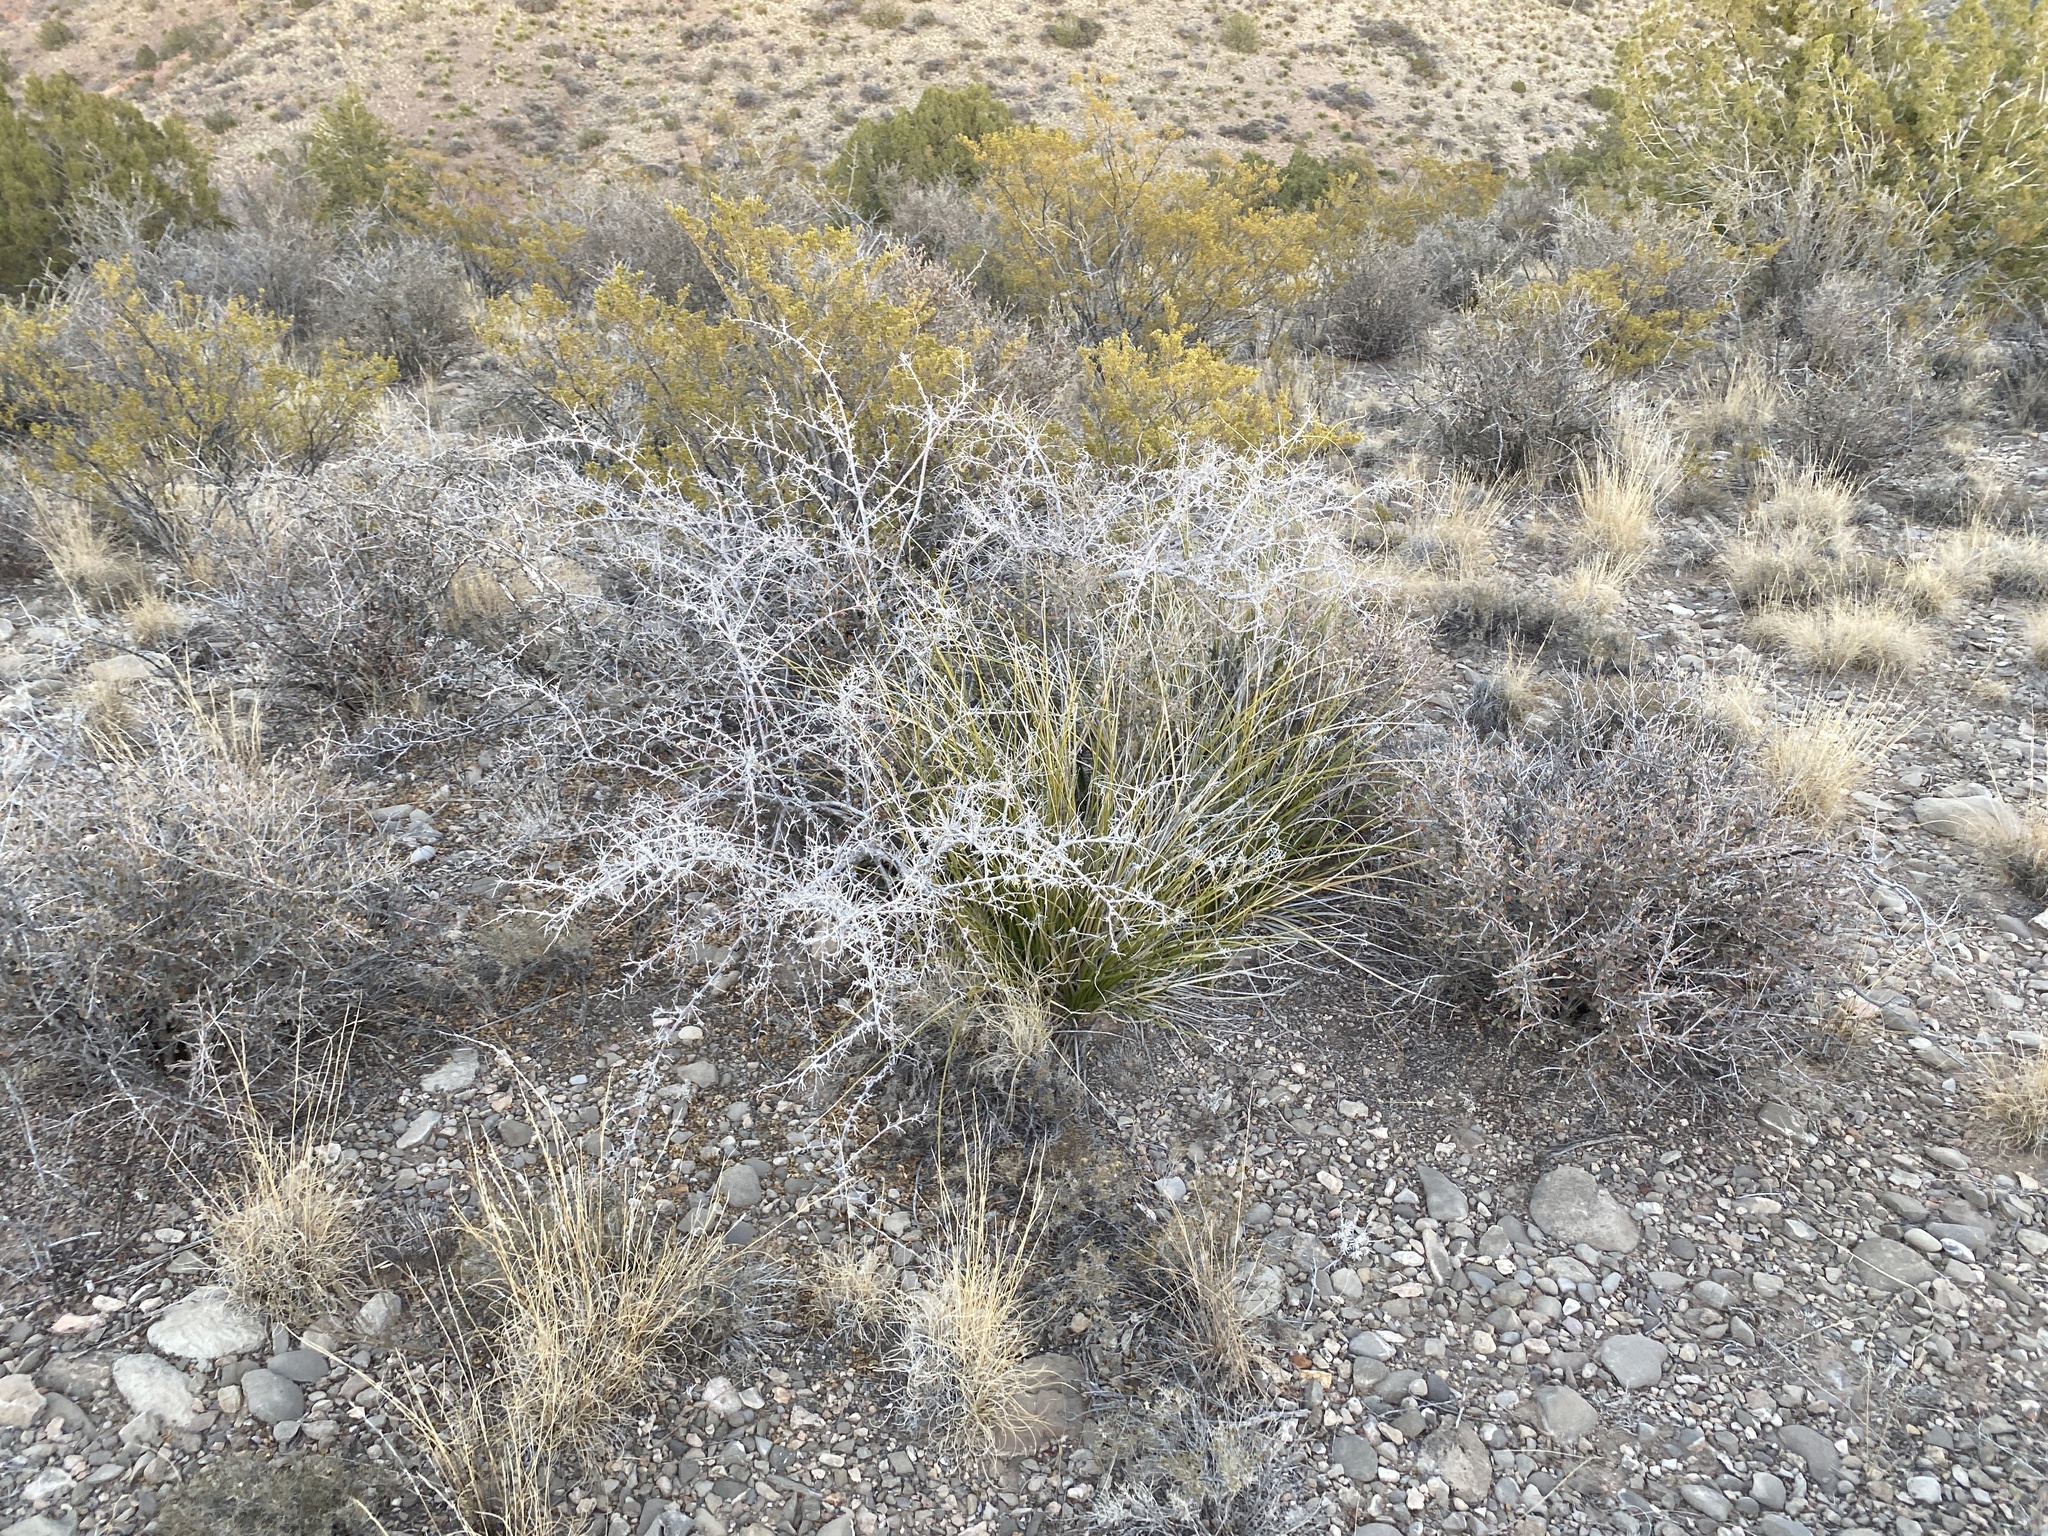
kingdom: Plantae
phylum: Tracheophyta
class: Magnoliopsida
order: Sapindales
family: Anacardiaceae
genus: Rhus
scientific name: Rhus microphylla
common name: Desert sumac
